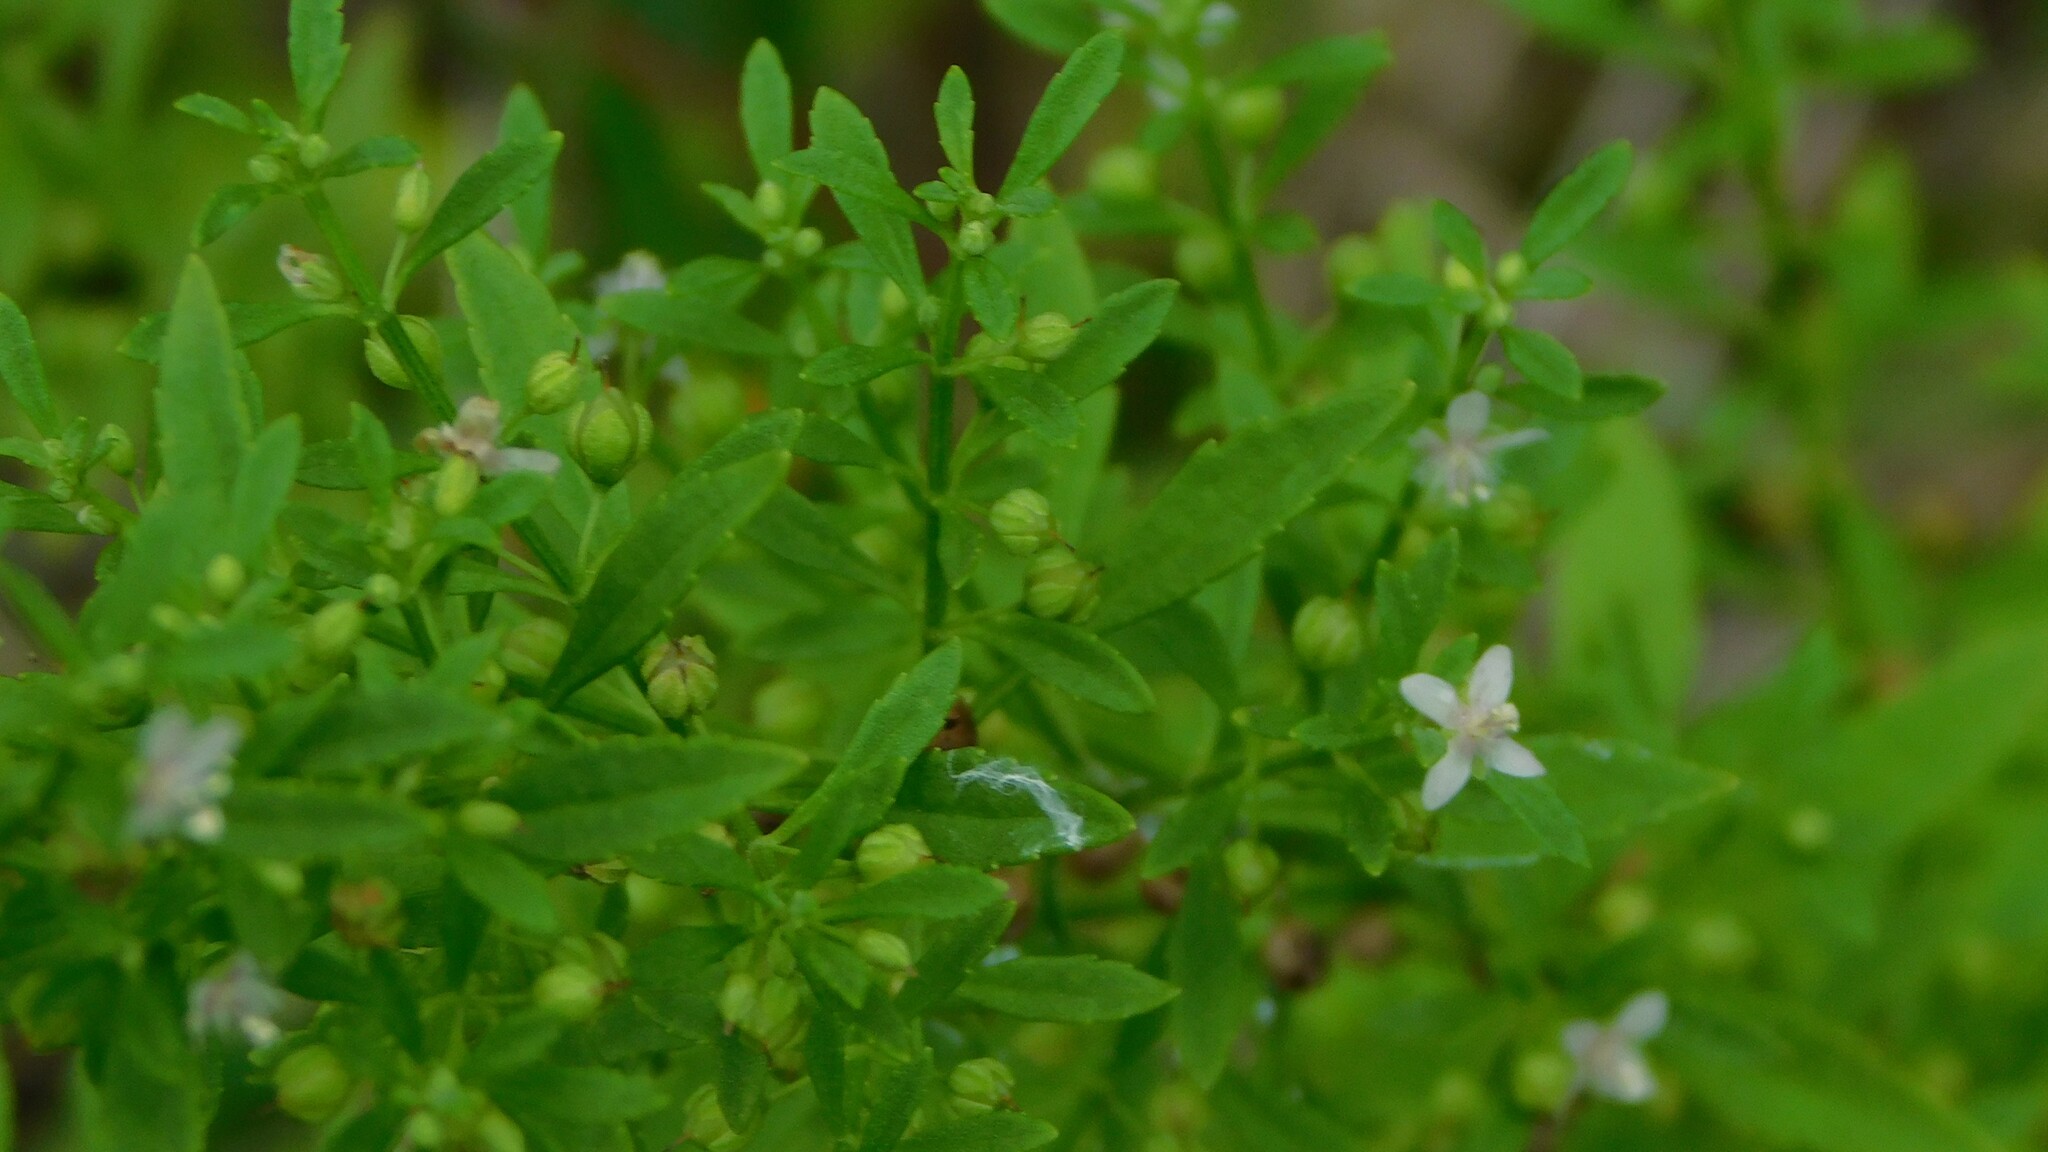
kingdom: Plantae
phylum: Tracheophyta
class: Magnoliopsida
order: Lamiales
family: Plantaginaceae
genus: Scoparia
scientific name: Scoparia dulcis
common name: Scoparia-weed
